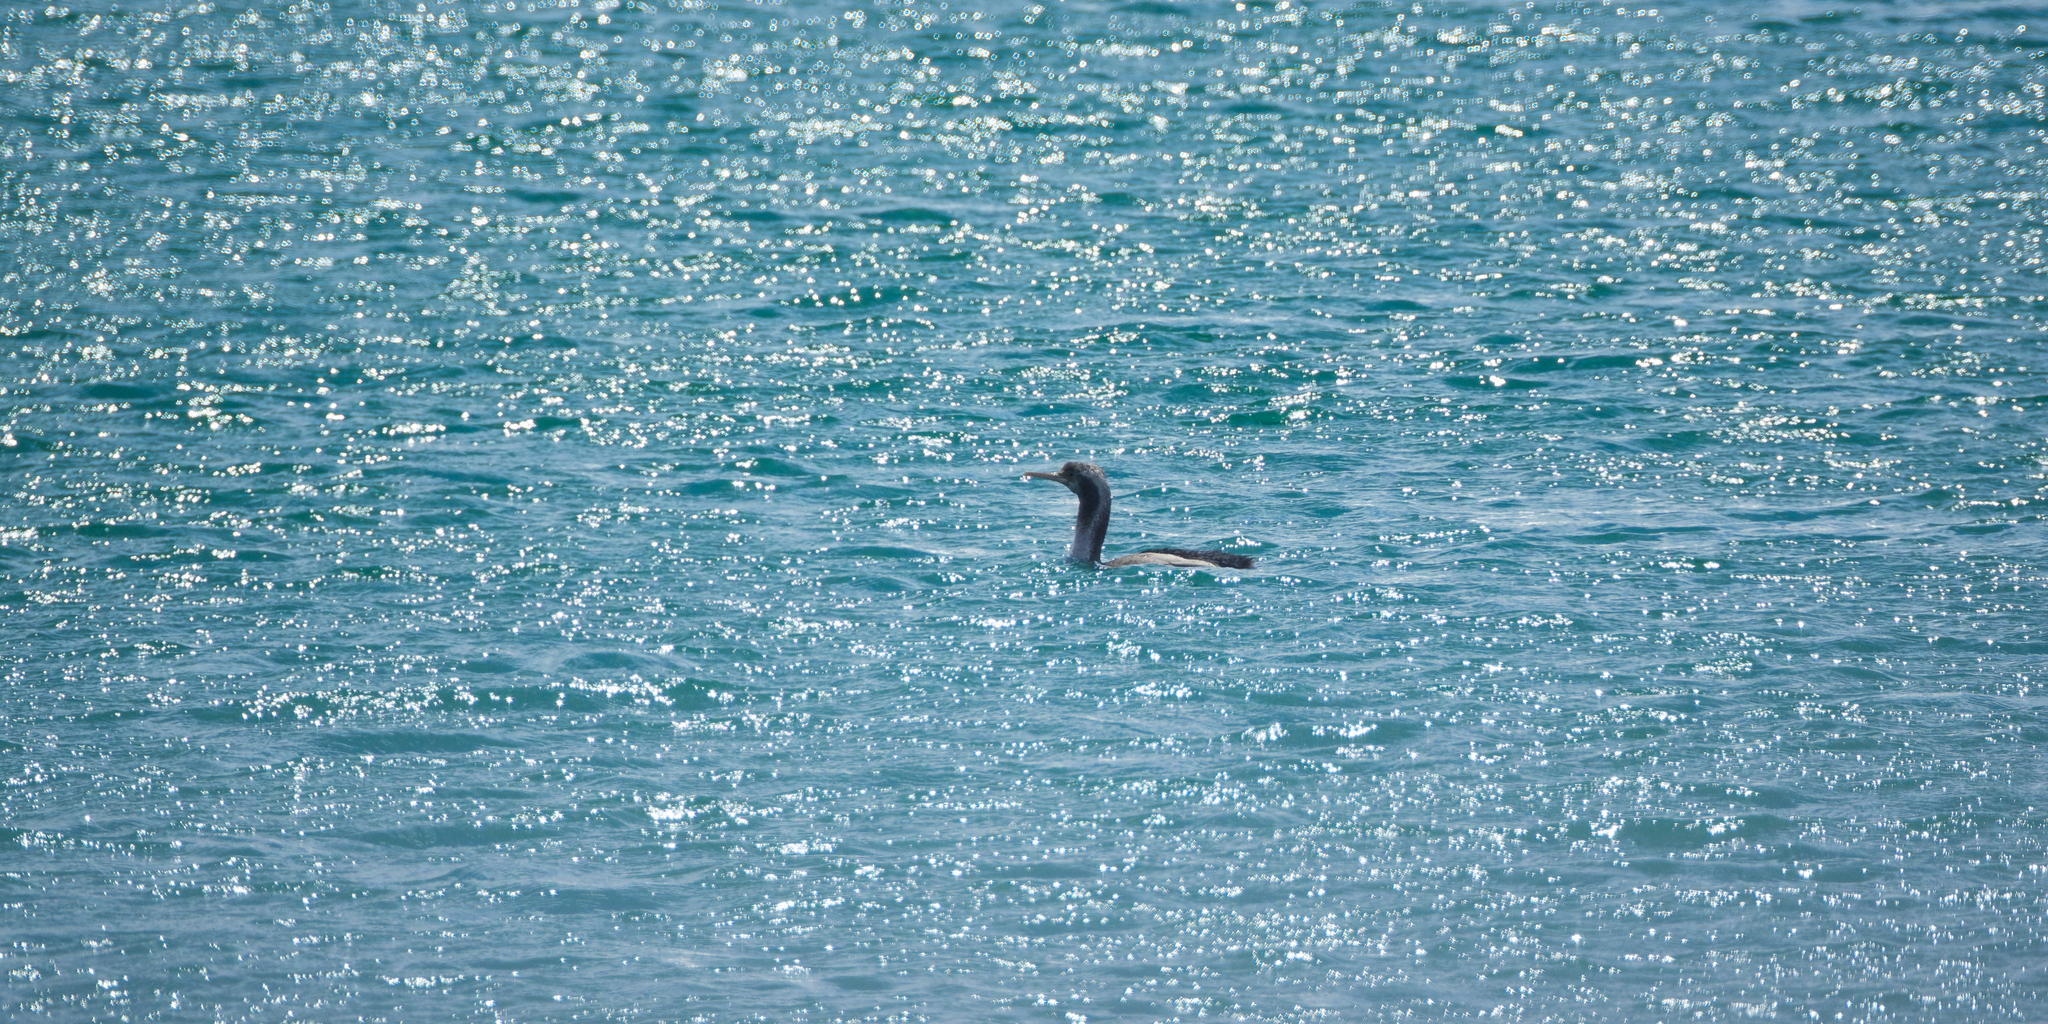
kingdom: Animalia
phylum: Chordata
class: Aves
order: Suliformes
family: Phalacrocoracidae
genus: Phalacrocorax
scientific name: Phalacrocorax punctatus
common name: Spotted shag
